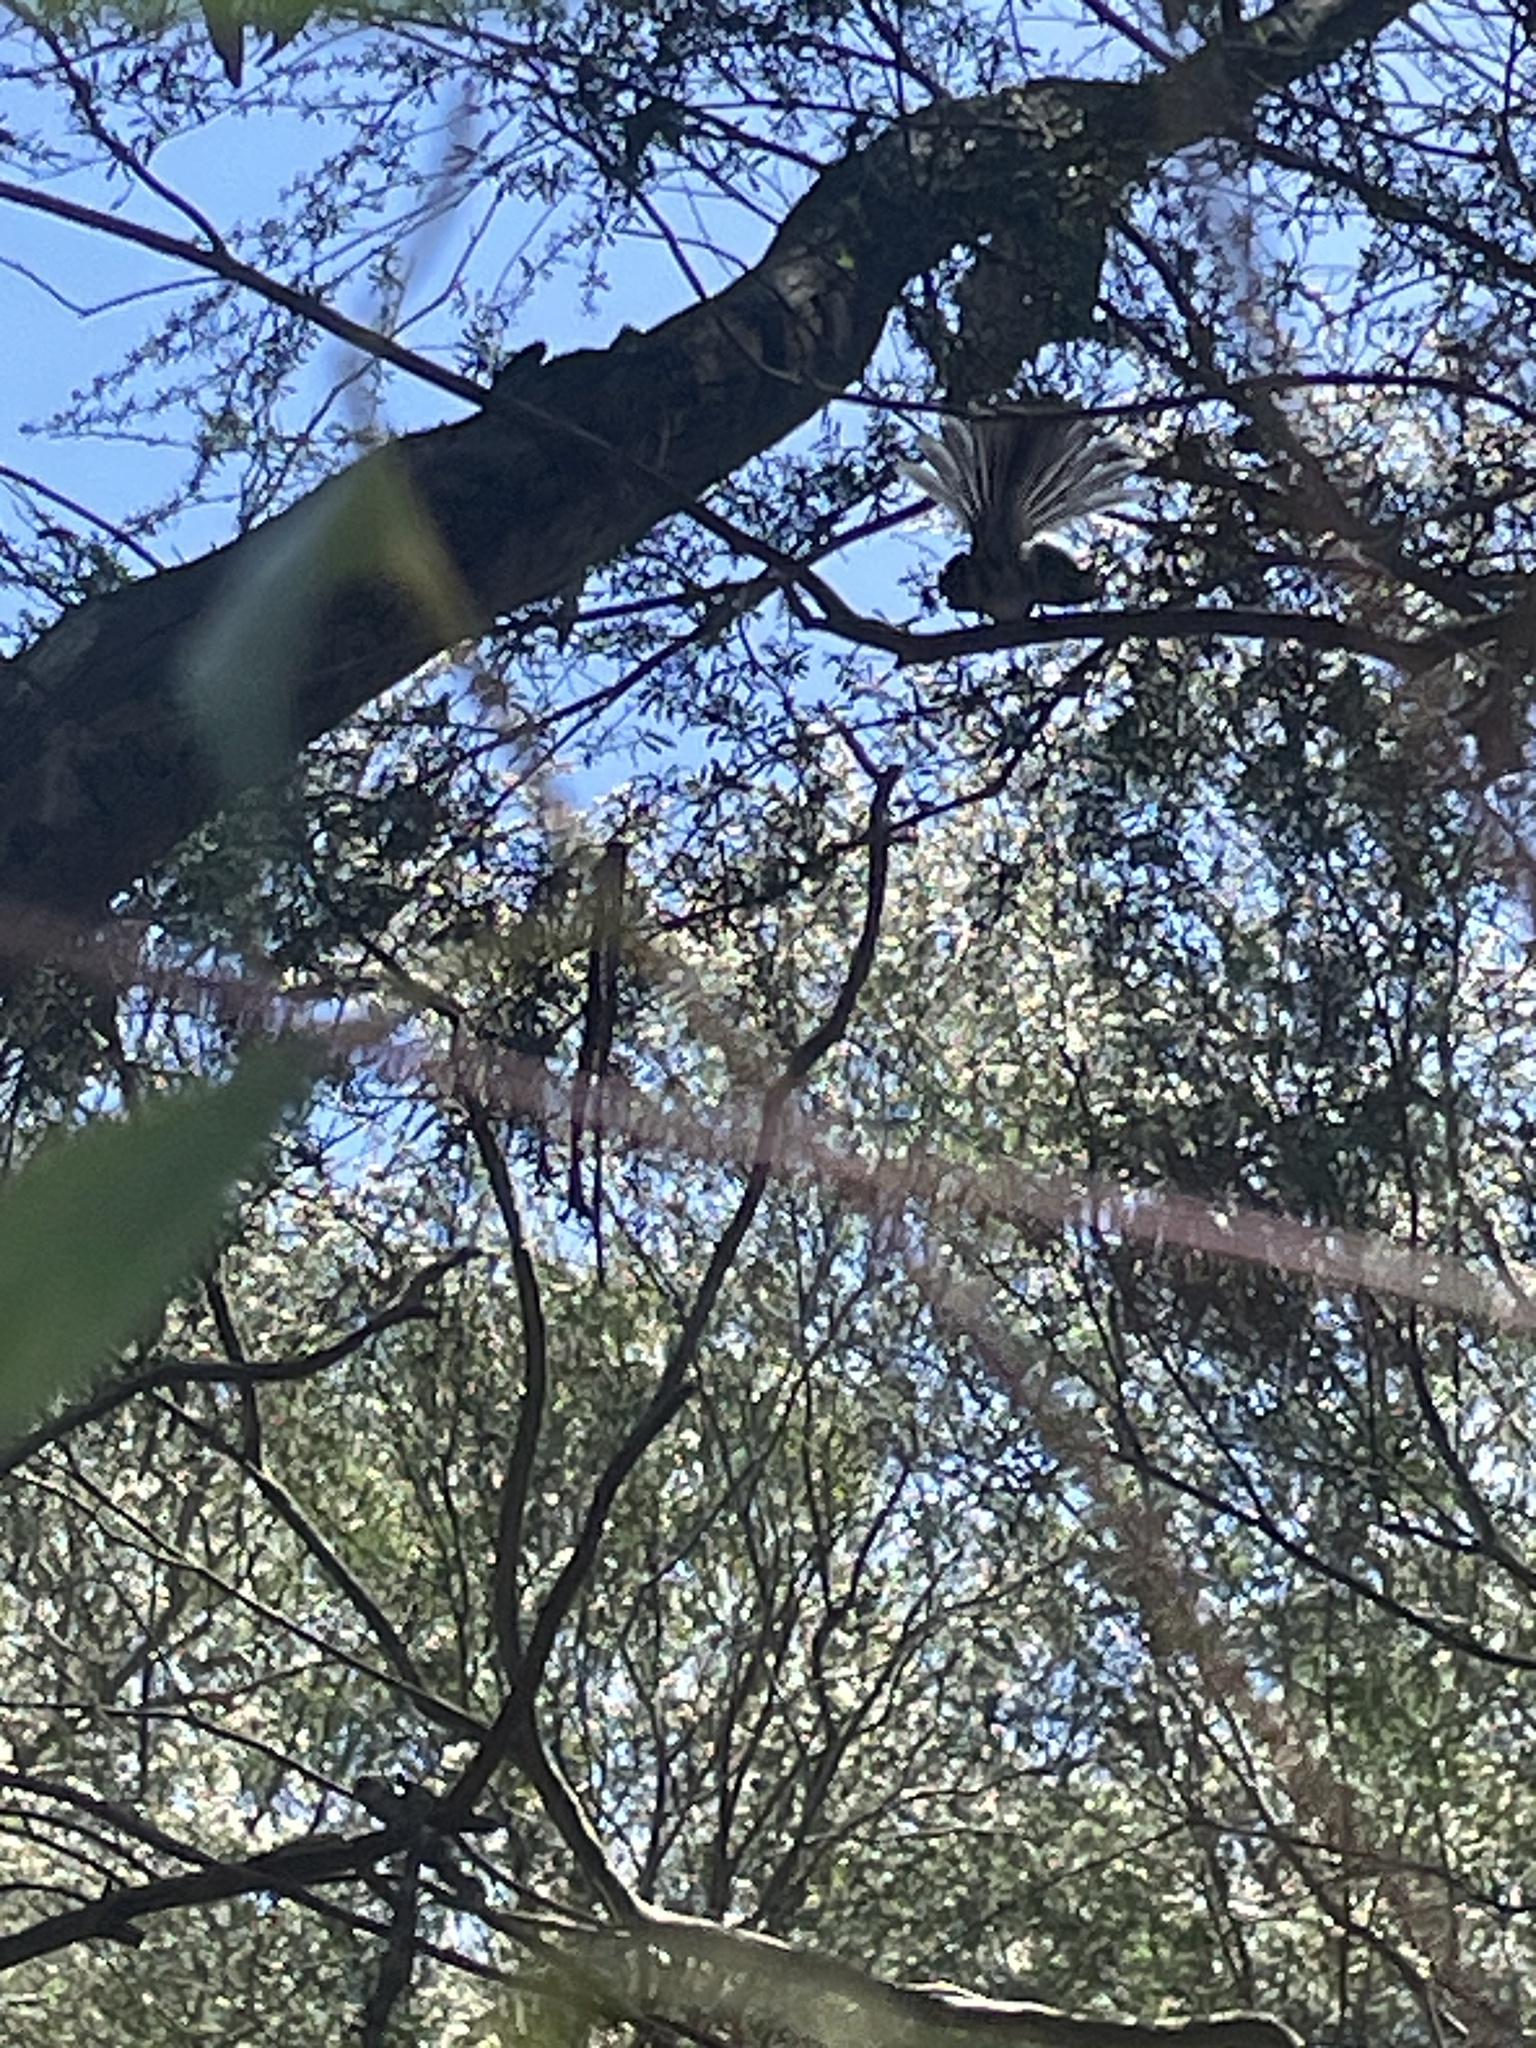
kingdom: Animalia
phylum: Chordata
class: Aves
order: Passeriformes
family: Rhipiduridae
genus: Rhipidura
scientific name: Rhipidura albiscapa
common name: Grey fantail
